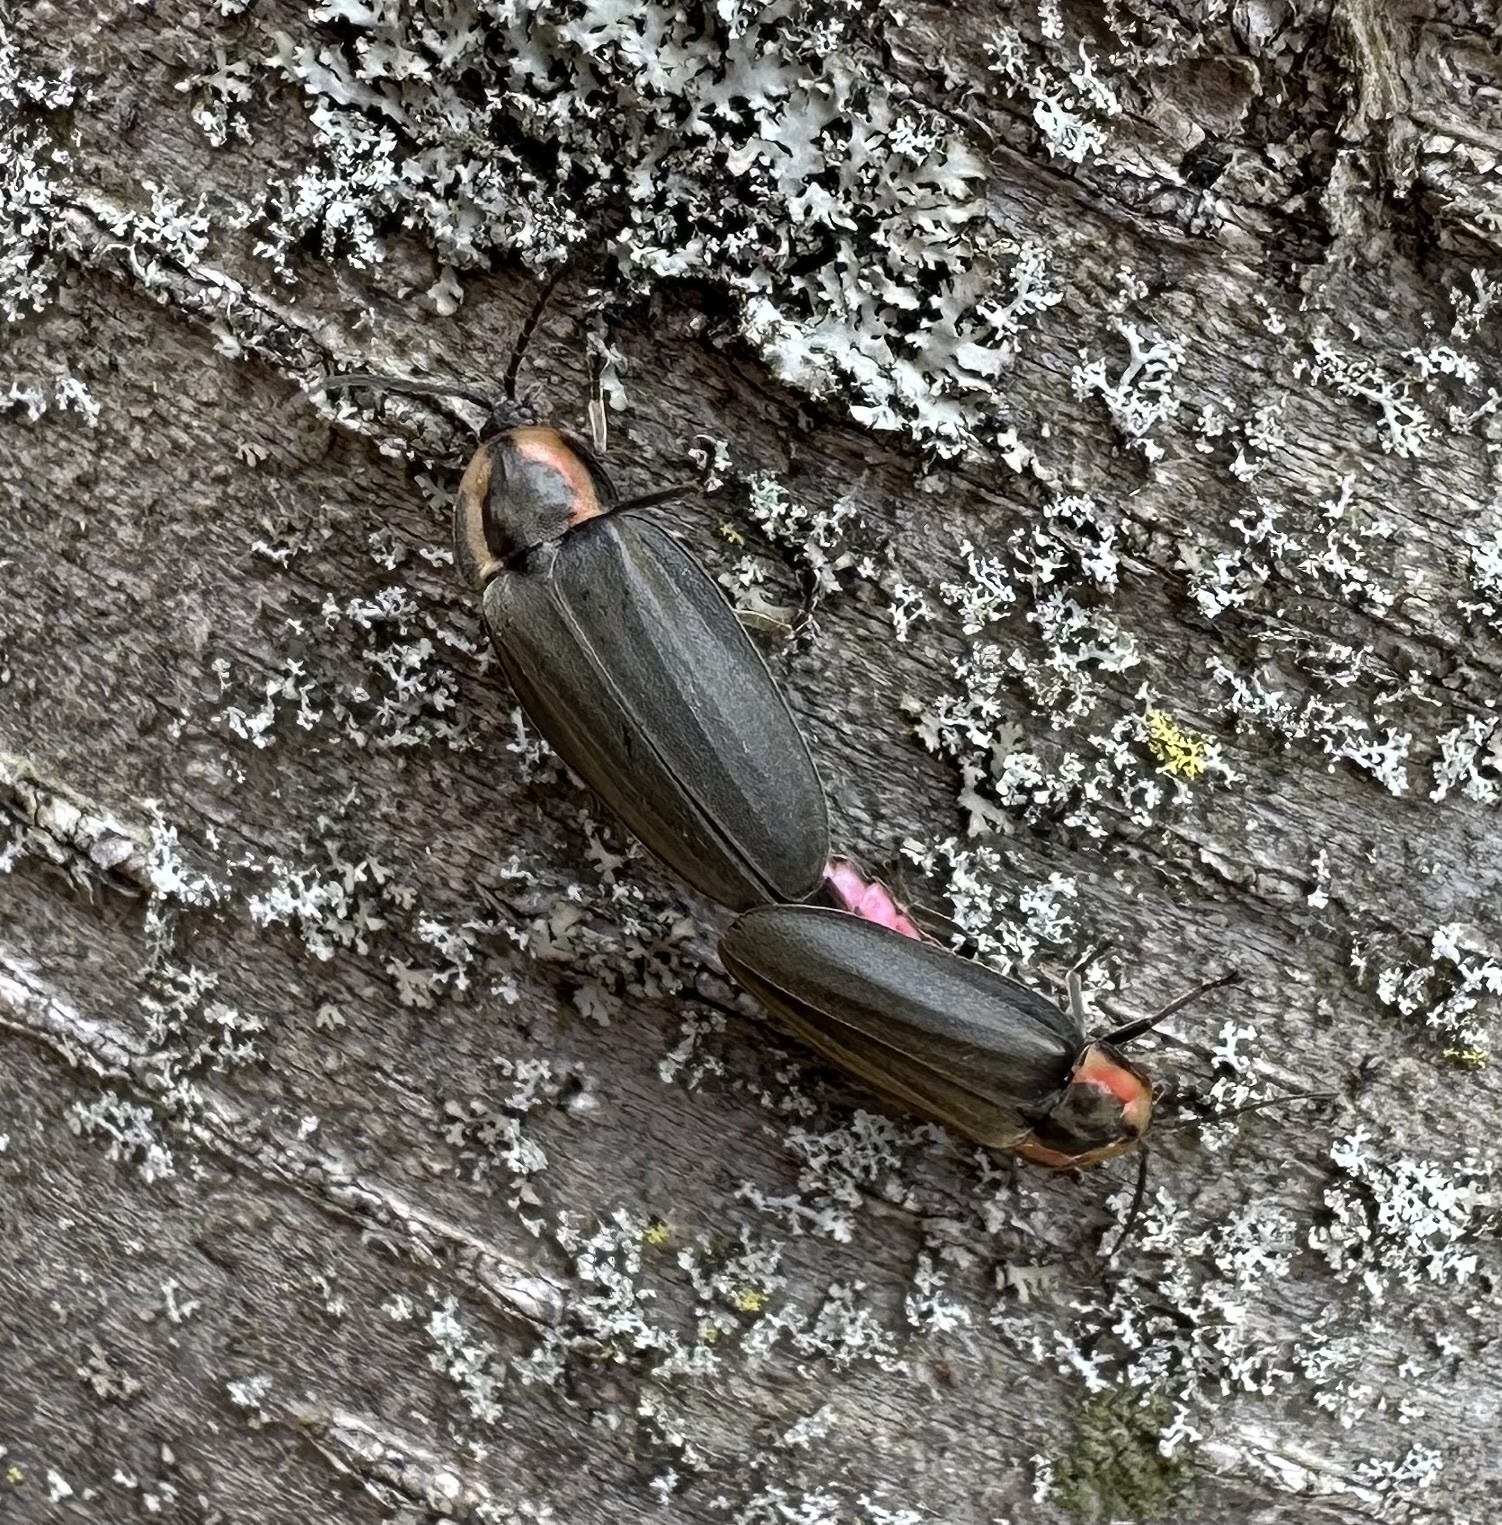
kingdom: Animalia
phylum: Arthropoda
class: Insecta
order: Coleoptera
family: Lampyridae
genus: Photinus
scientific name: Photinus corrusca
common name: Winter firefly
